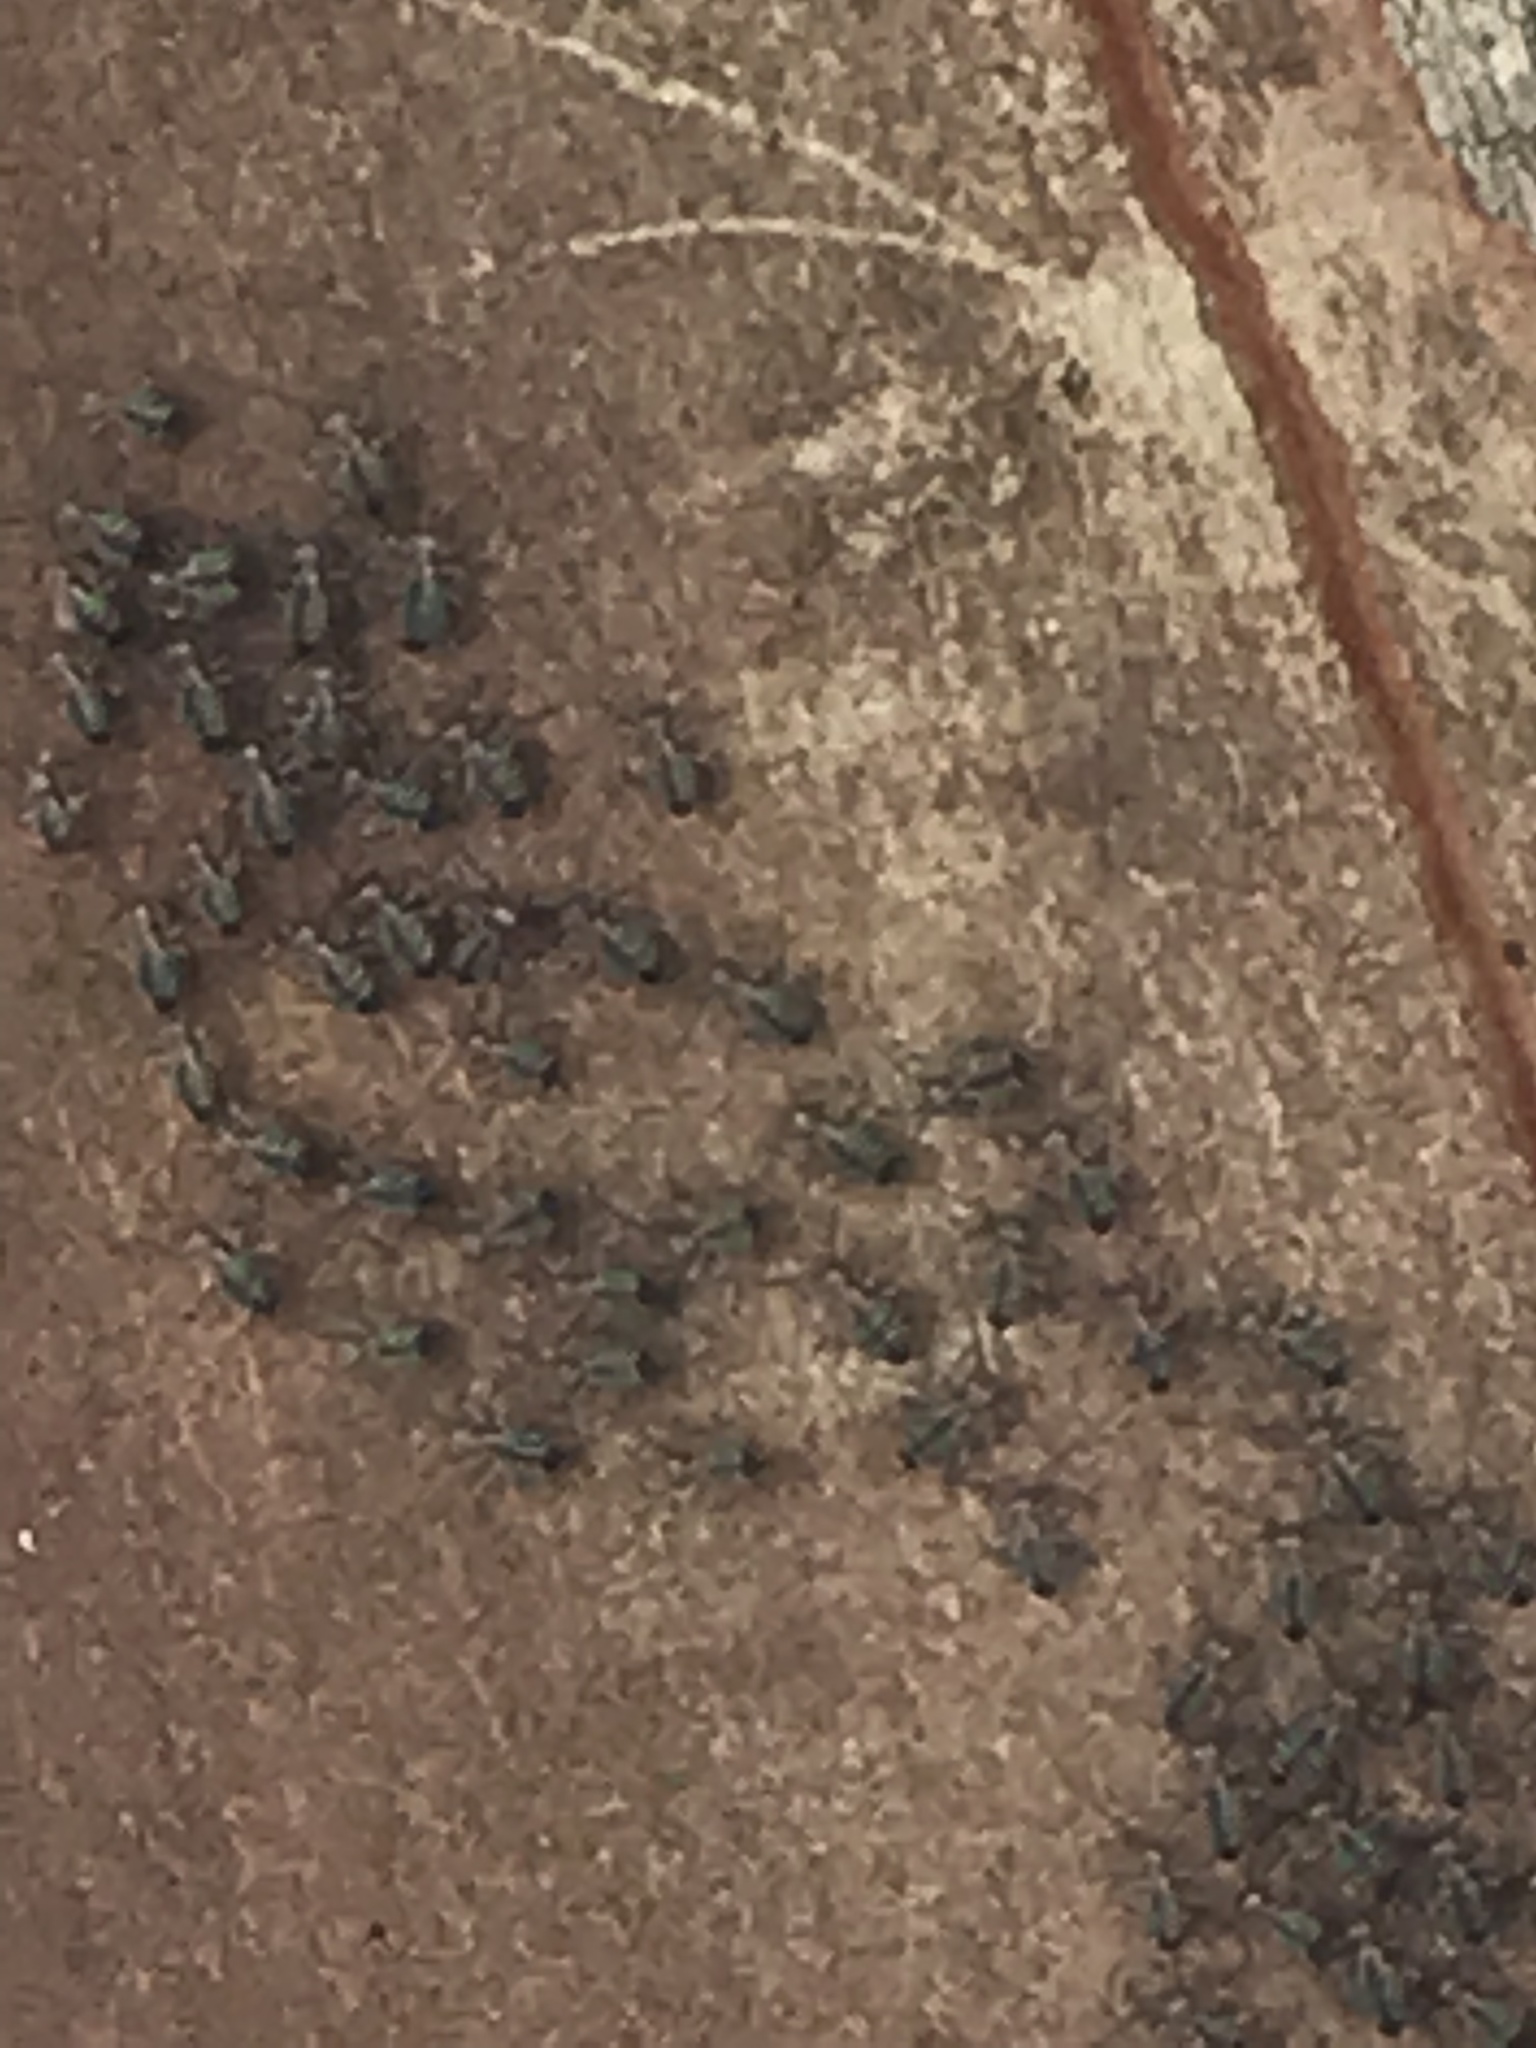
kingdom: Animalia
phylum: Arthropoda
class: Arachnida
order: Araneae
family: Pisauridae
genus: Dolomedes
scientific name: Dolomedes albineus
